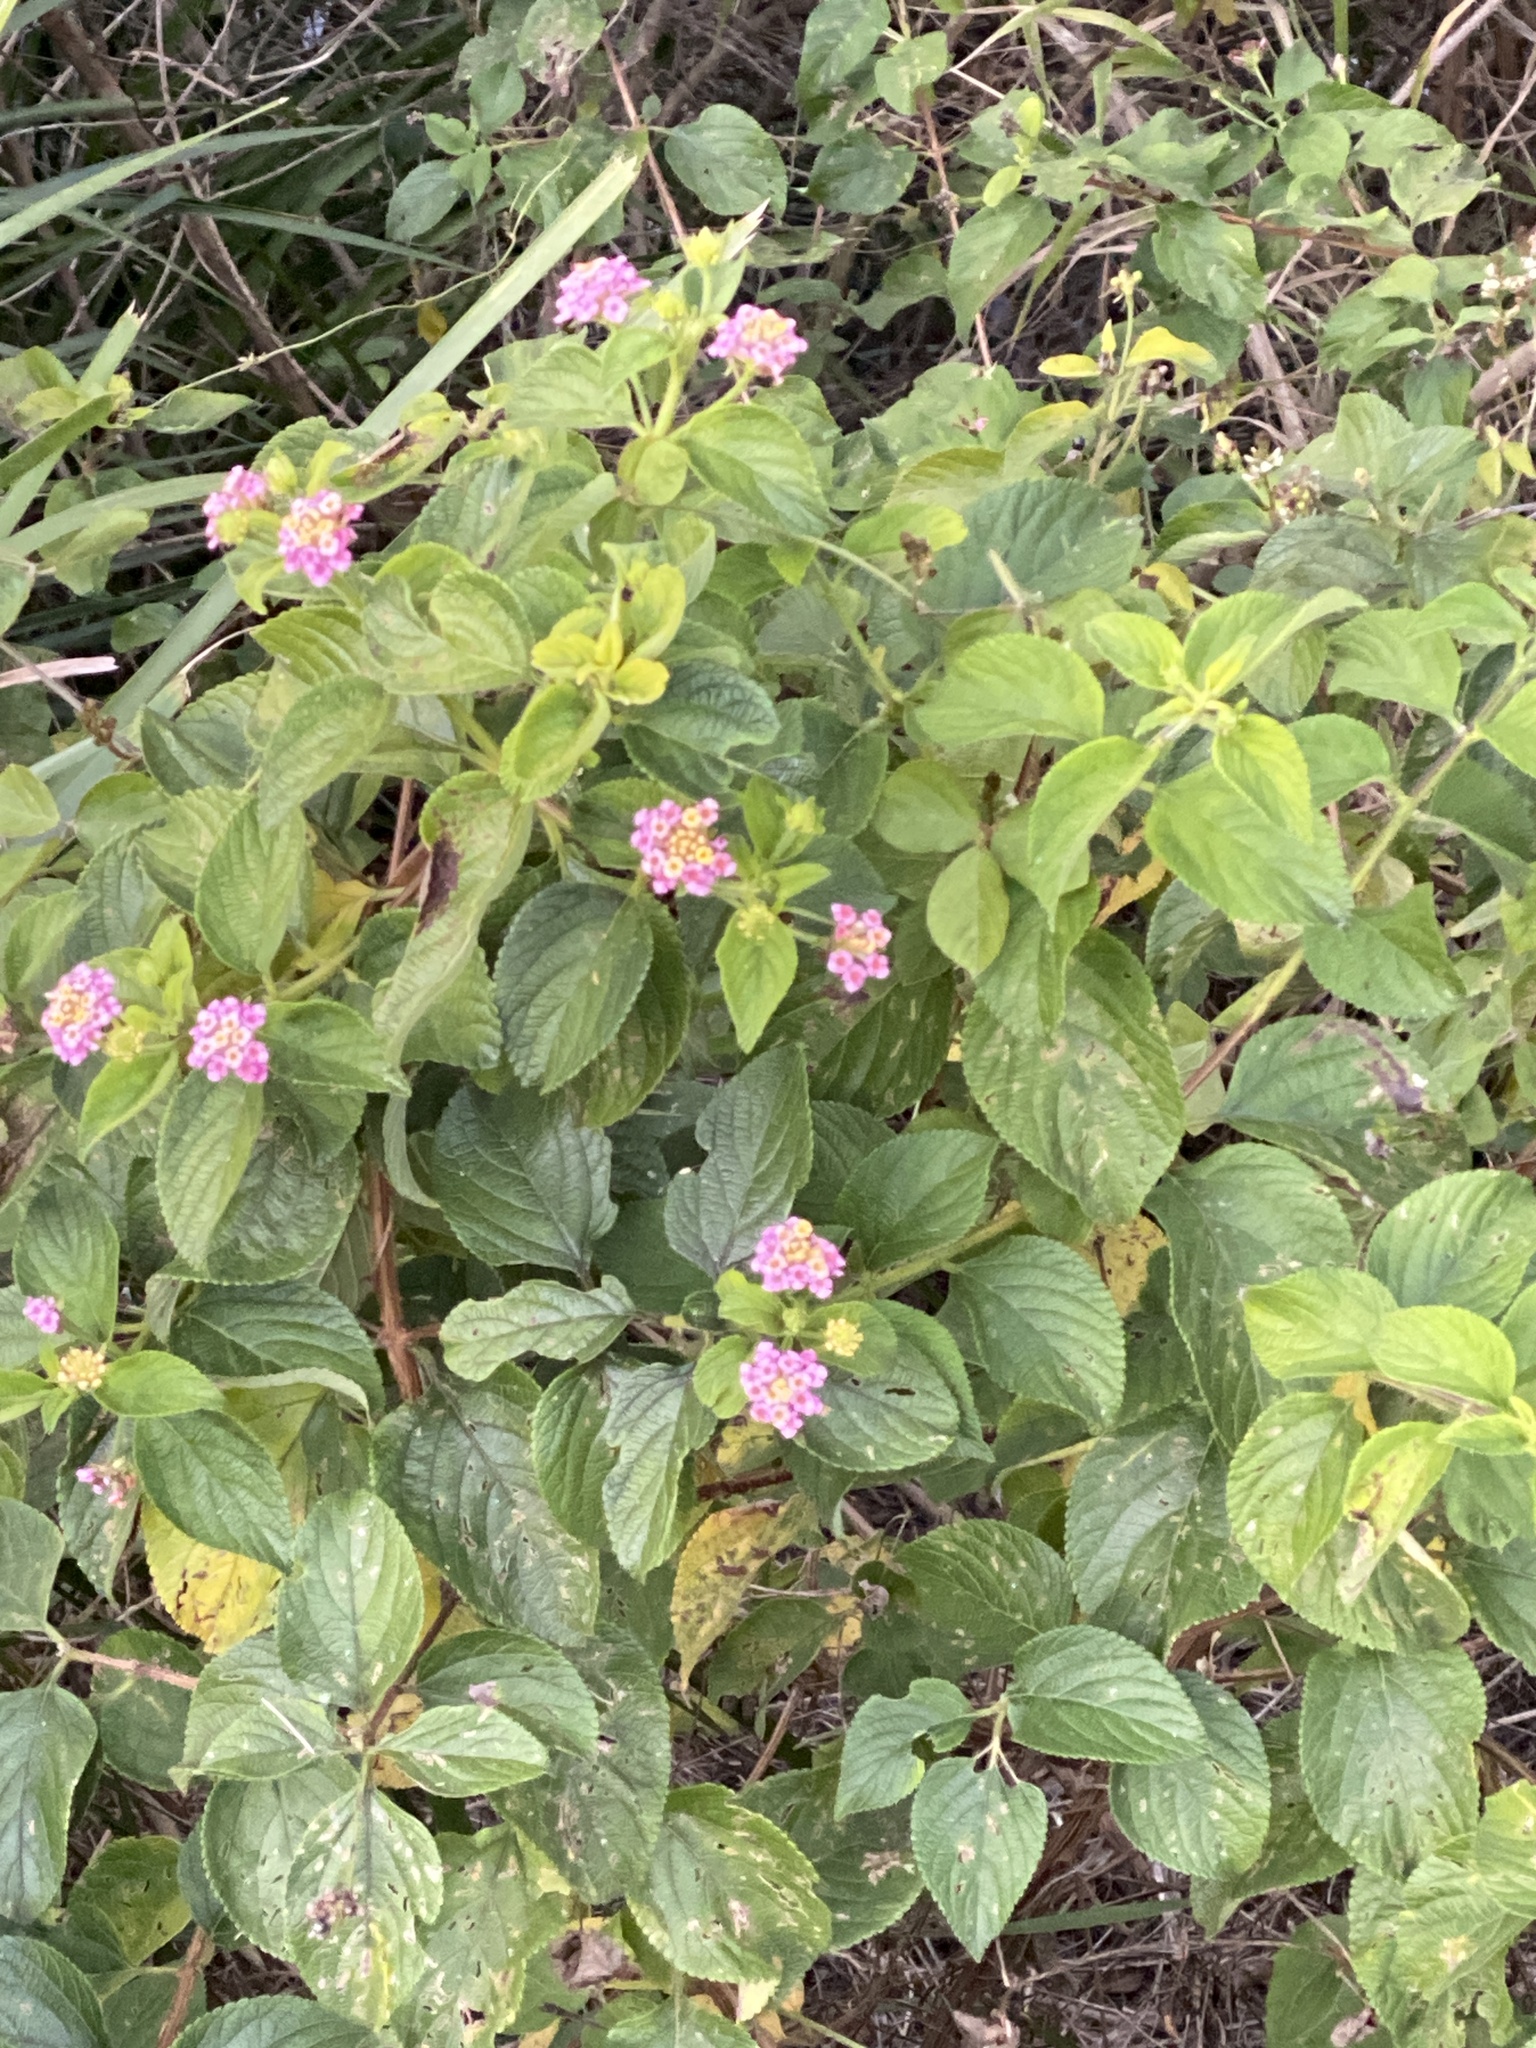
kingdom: Plantae
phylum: Tracheophyta
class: Magnoliopsida
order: Lamiales
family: Verbenaceae
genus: Lantana
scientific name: Lantana camara
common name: Lantana
